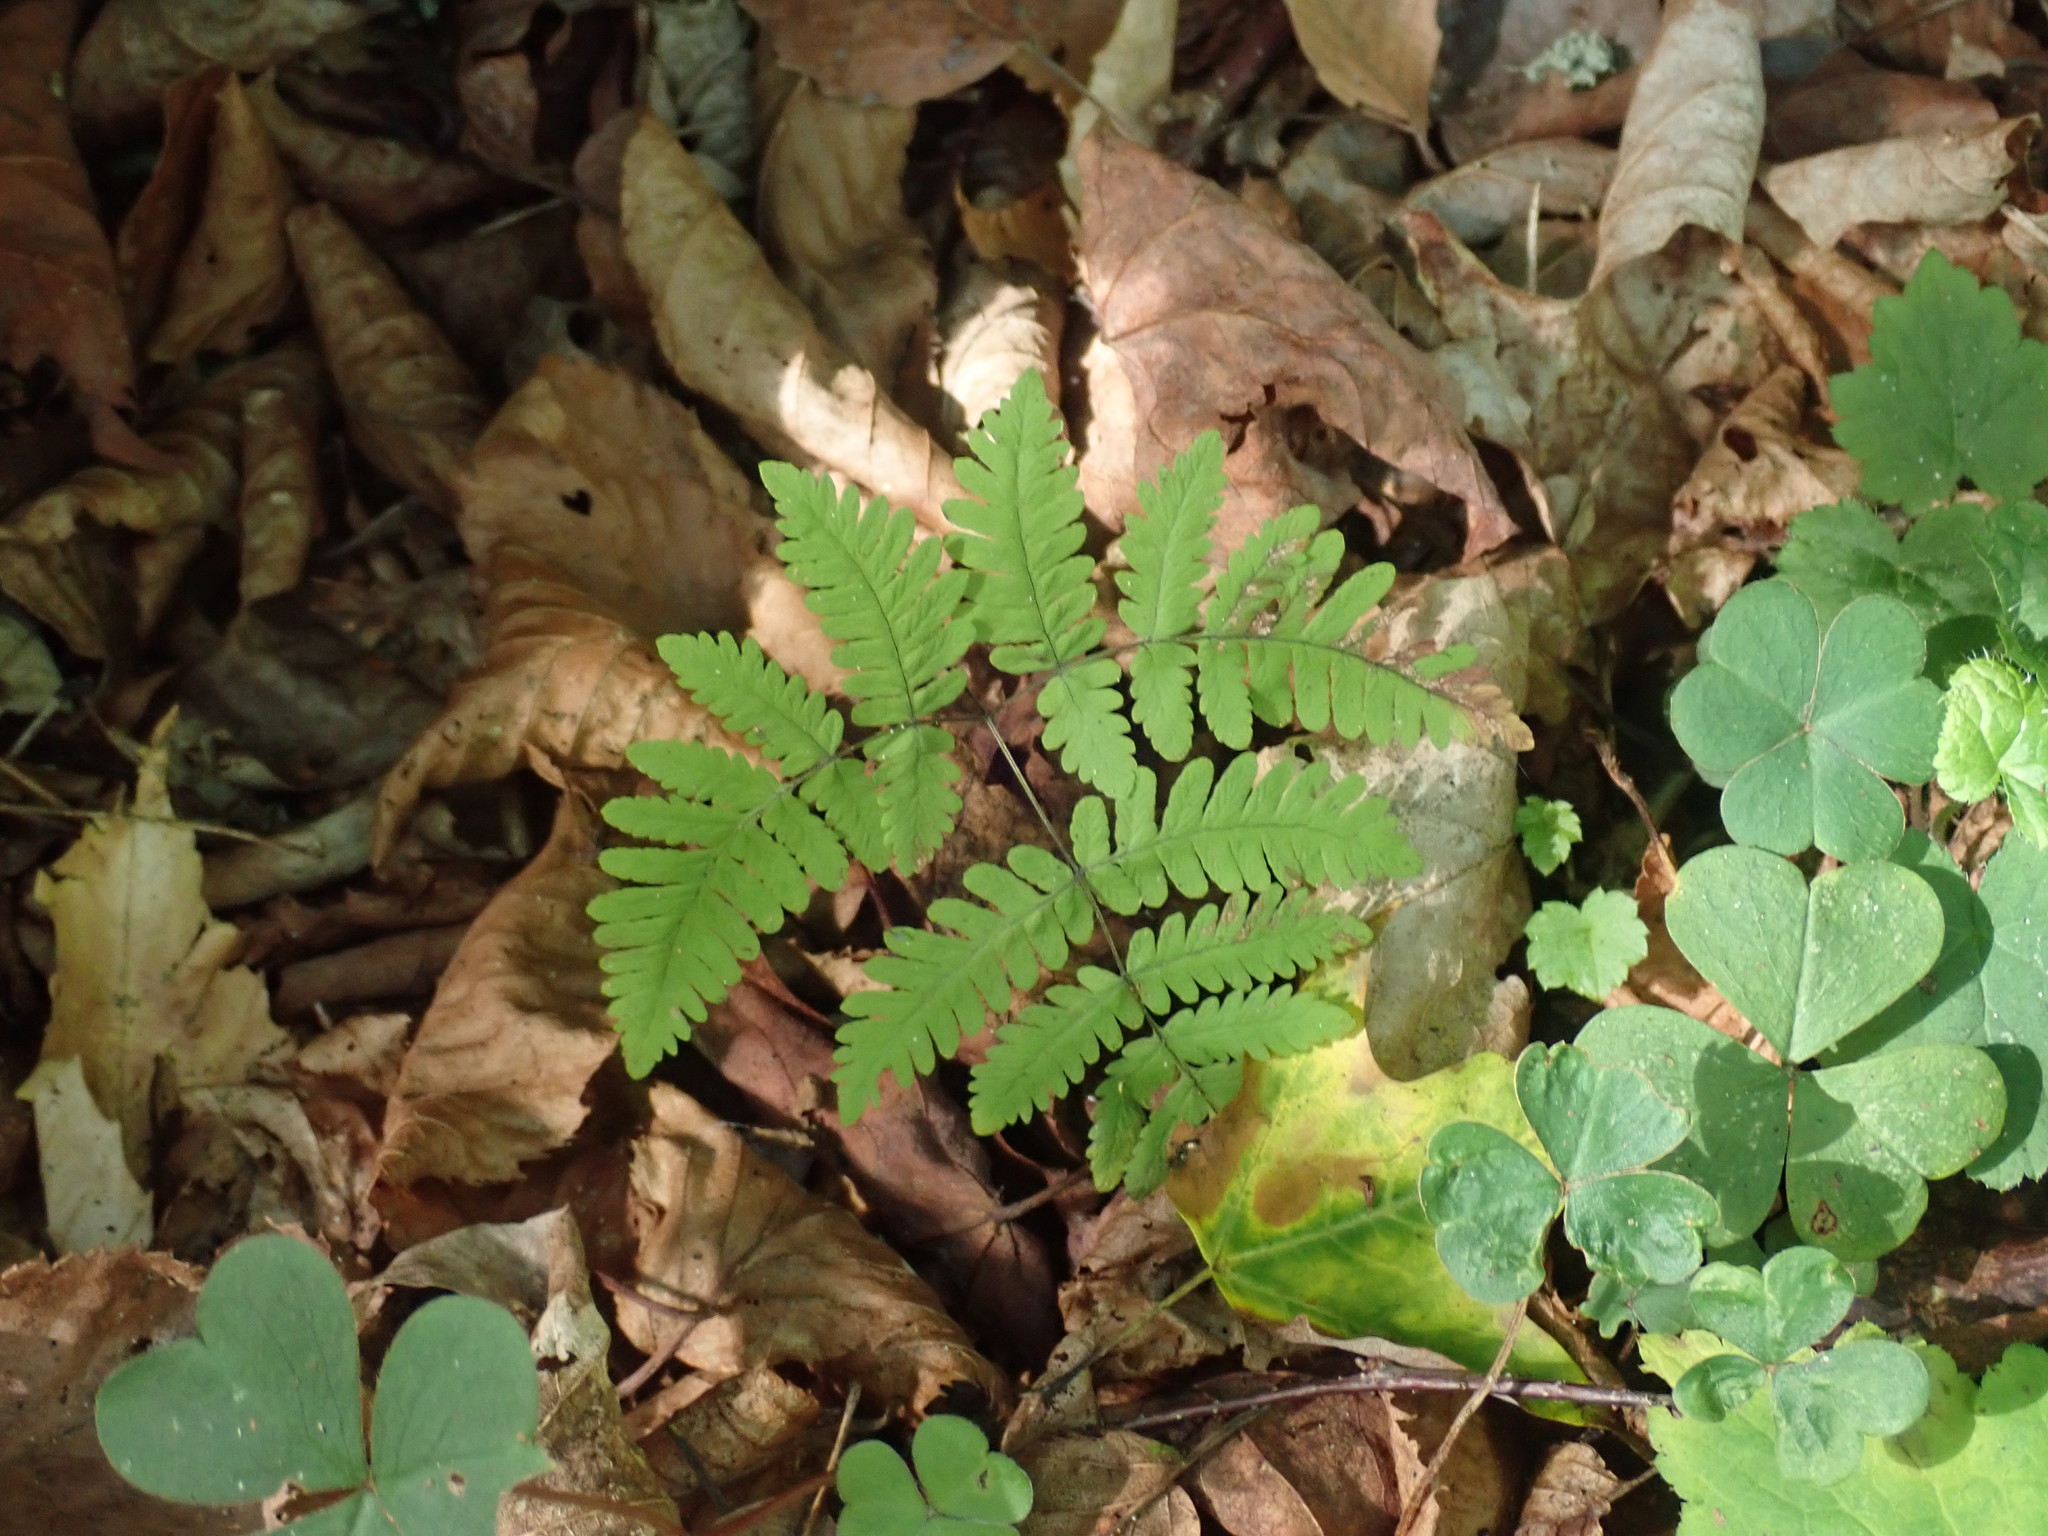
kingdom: Plantae
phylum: Tracheophyta
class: Polypodiopsida
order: Polypodiales
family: Cystopteridaceae
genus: Gymnocarpium
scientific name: Gymnocarpium dryopteris
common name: Oak fern
